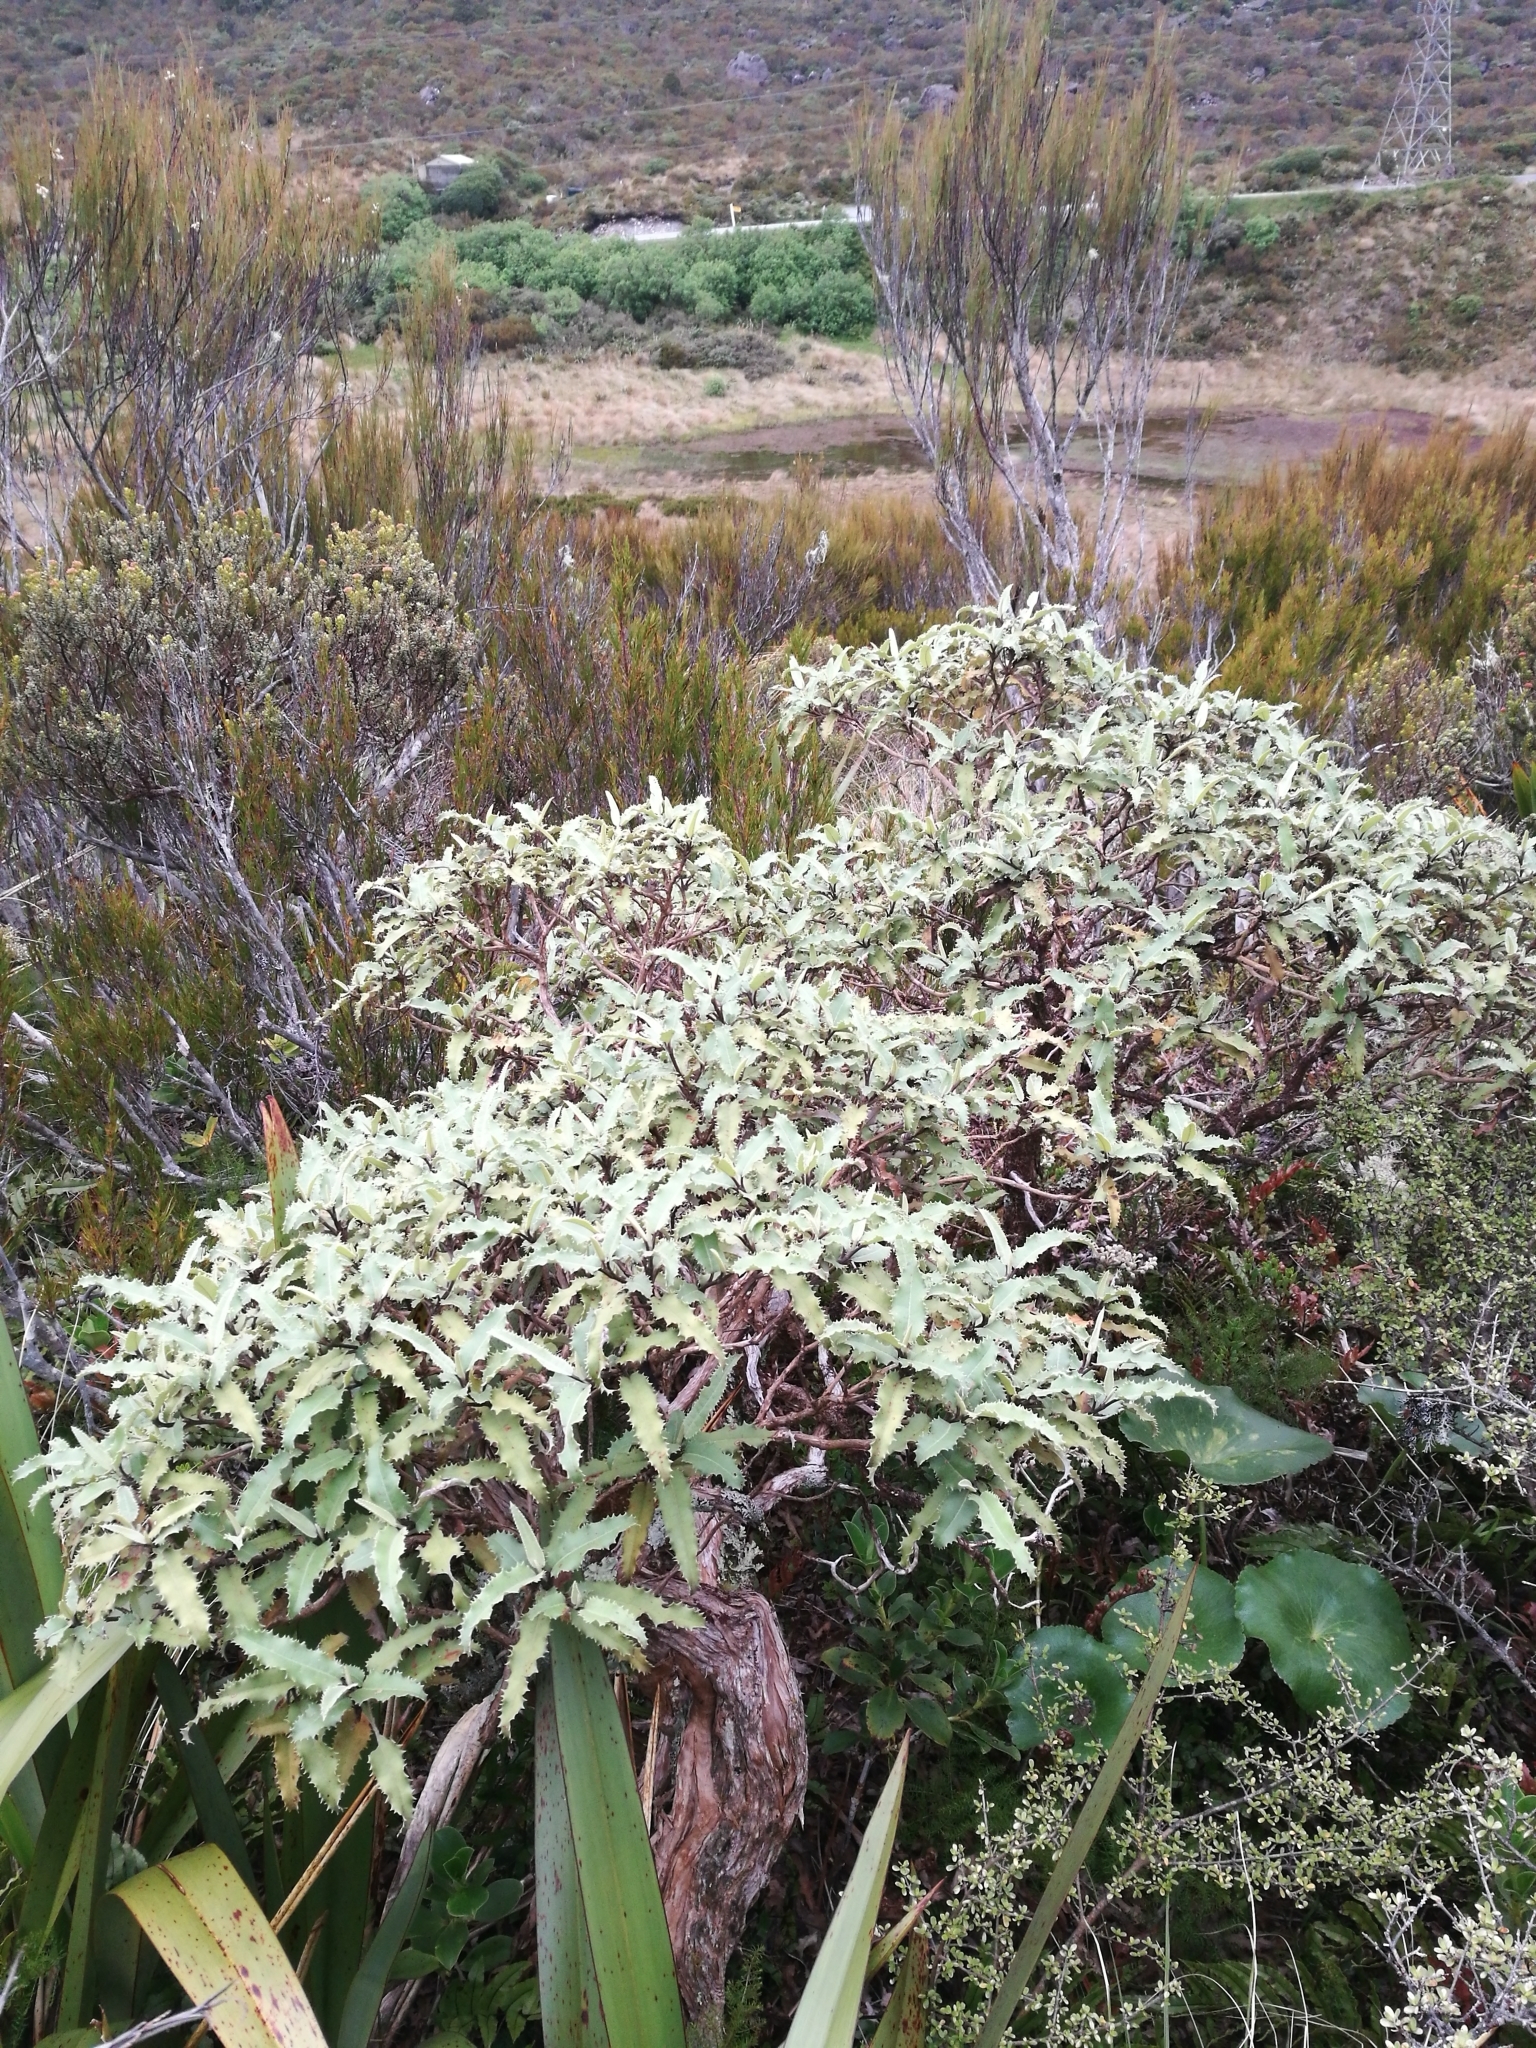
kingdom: Plantae
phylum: Tracheophyta
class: Magnoliopsida
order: Asterales
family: Asteraceae
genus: Olearia
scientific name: Olearia ilicifolia
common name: Maori-holly
